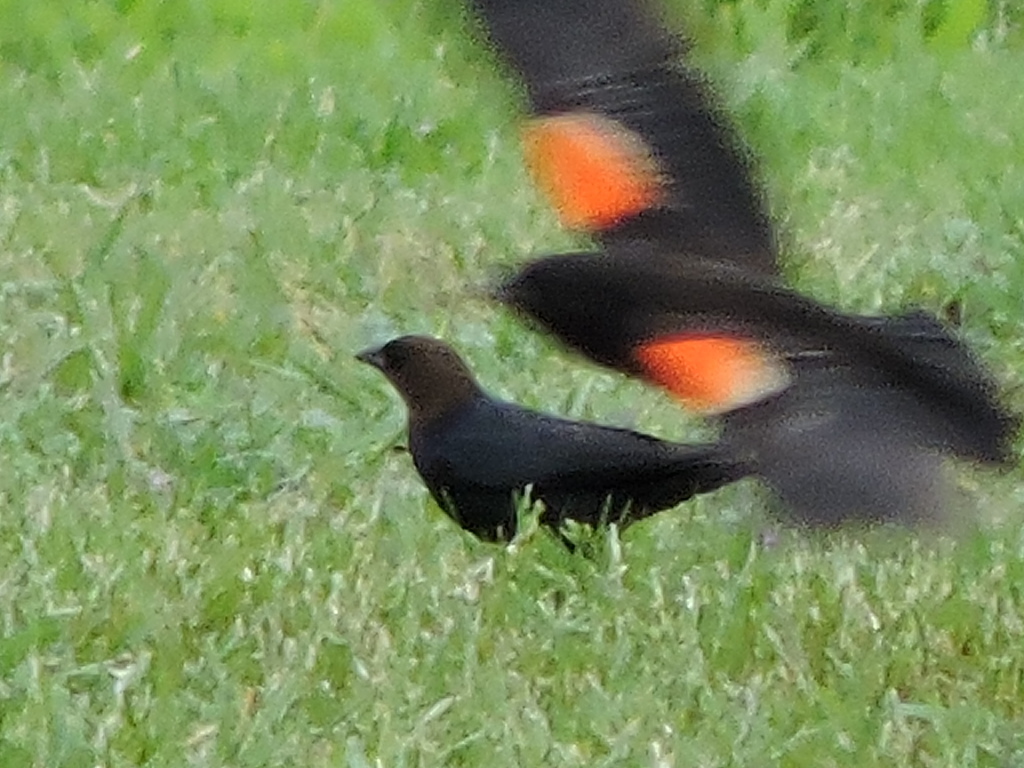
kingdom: Animalia
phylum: Chordata
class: Aves
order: Passeriformes
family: Icteridae
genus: Molothrus
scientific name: Molothrus ater
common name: Brown-headed cowbird
